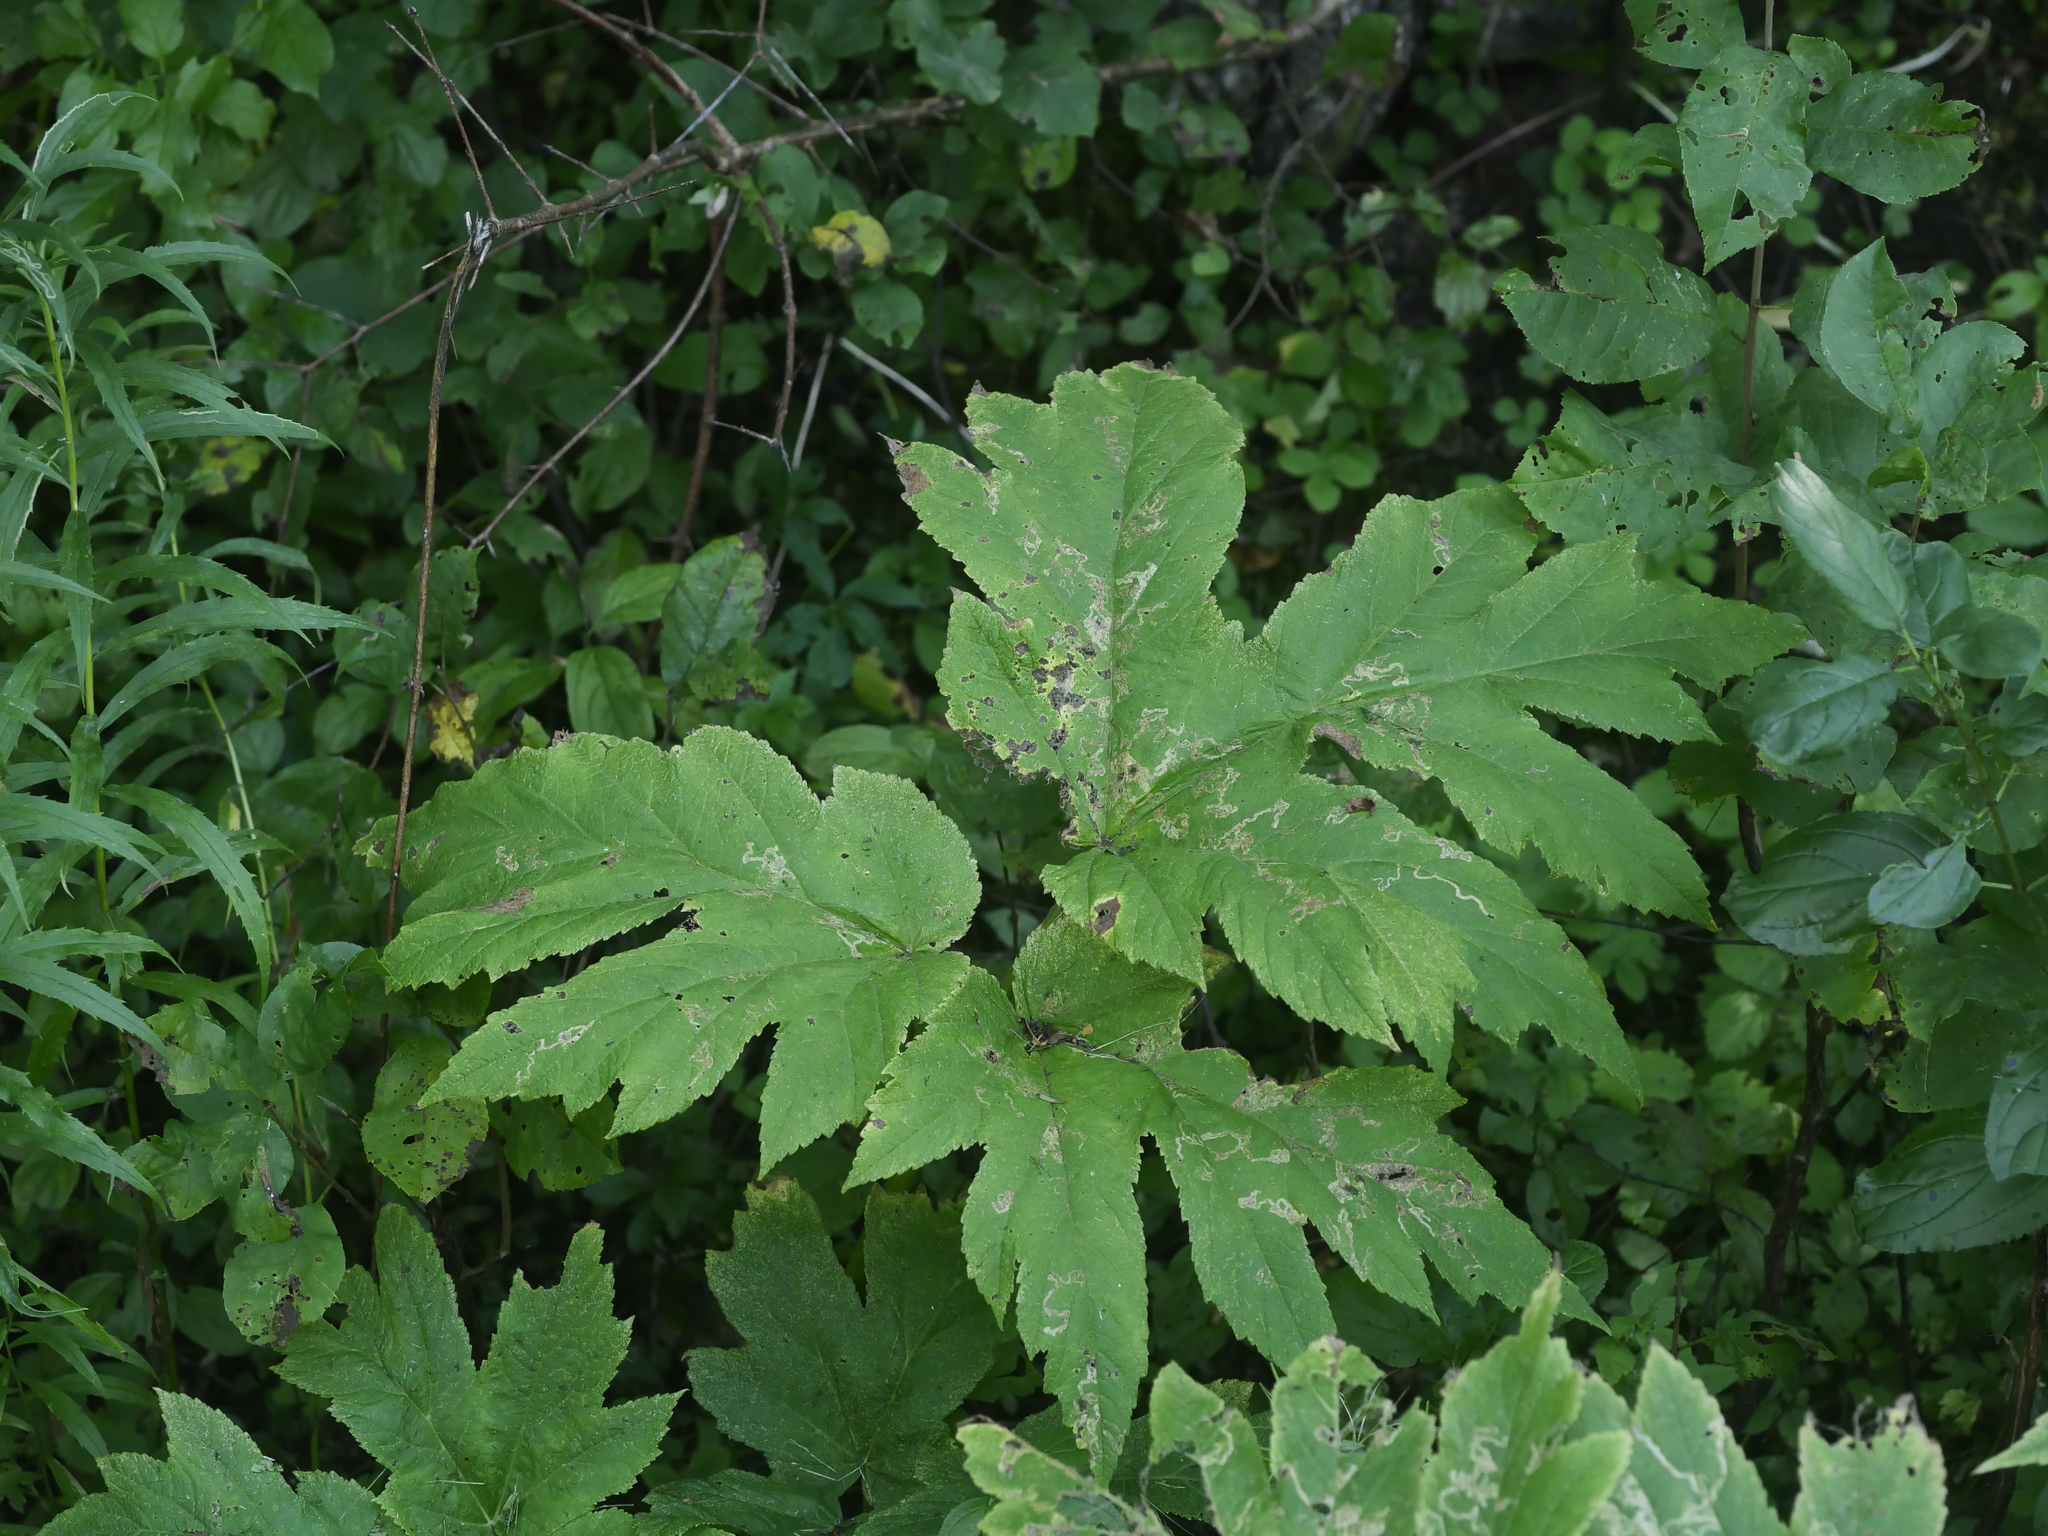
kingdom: Plantae
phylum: Tracheophyta
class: Magnoliopsida
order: Apiales
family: Apiaceae
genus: Heracleum
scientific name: Heracleum maximum
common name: American cow parsnip
